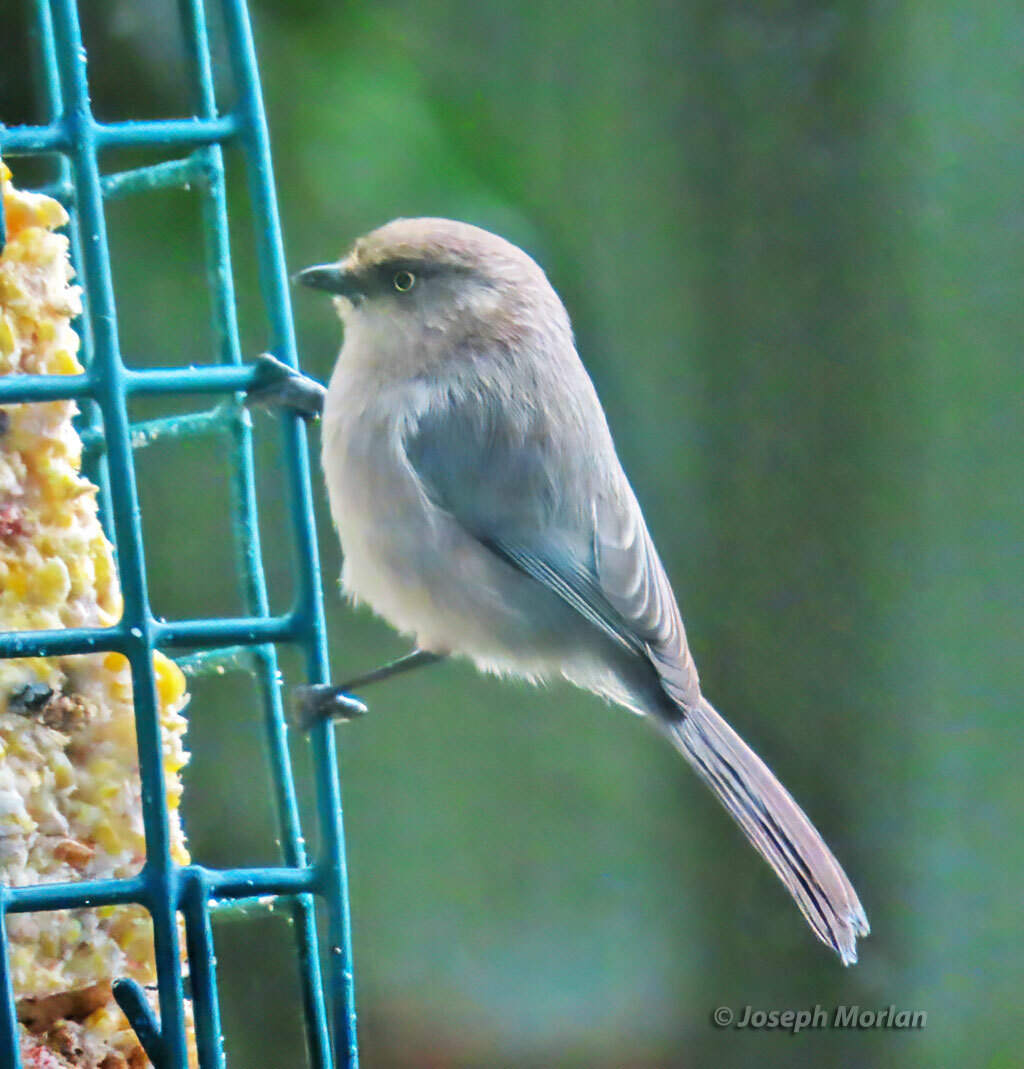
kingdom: Animalia
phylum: Chordata
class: Aves
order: Passeriformes
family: Aegithalidae
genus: Psaltriparus
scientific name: Psaltriparus minimus
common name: American bushtit
